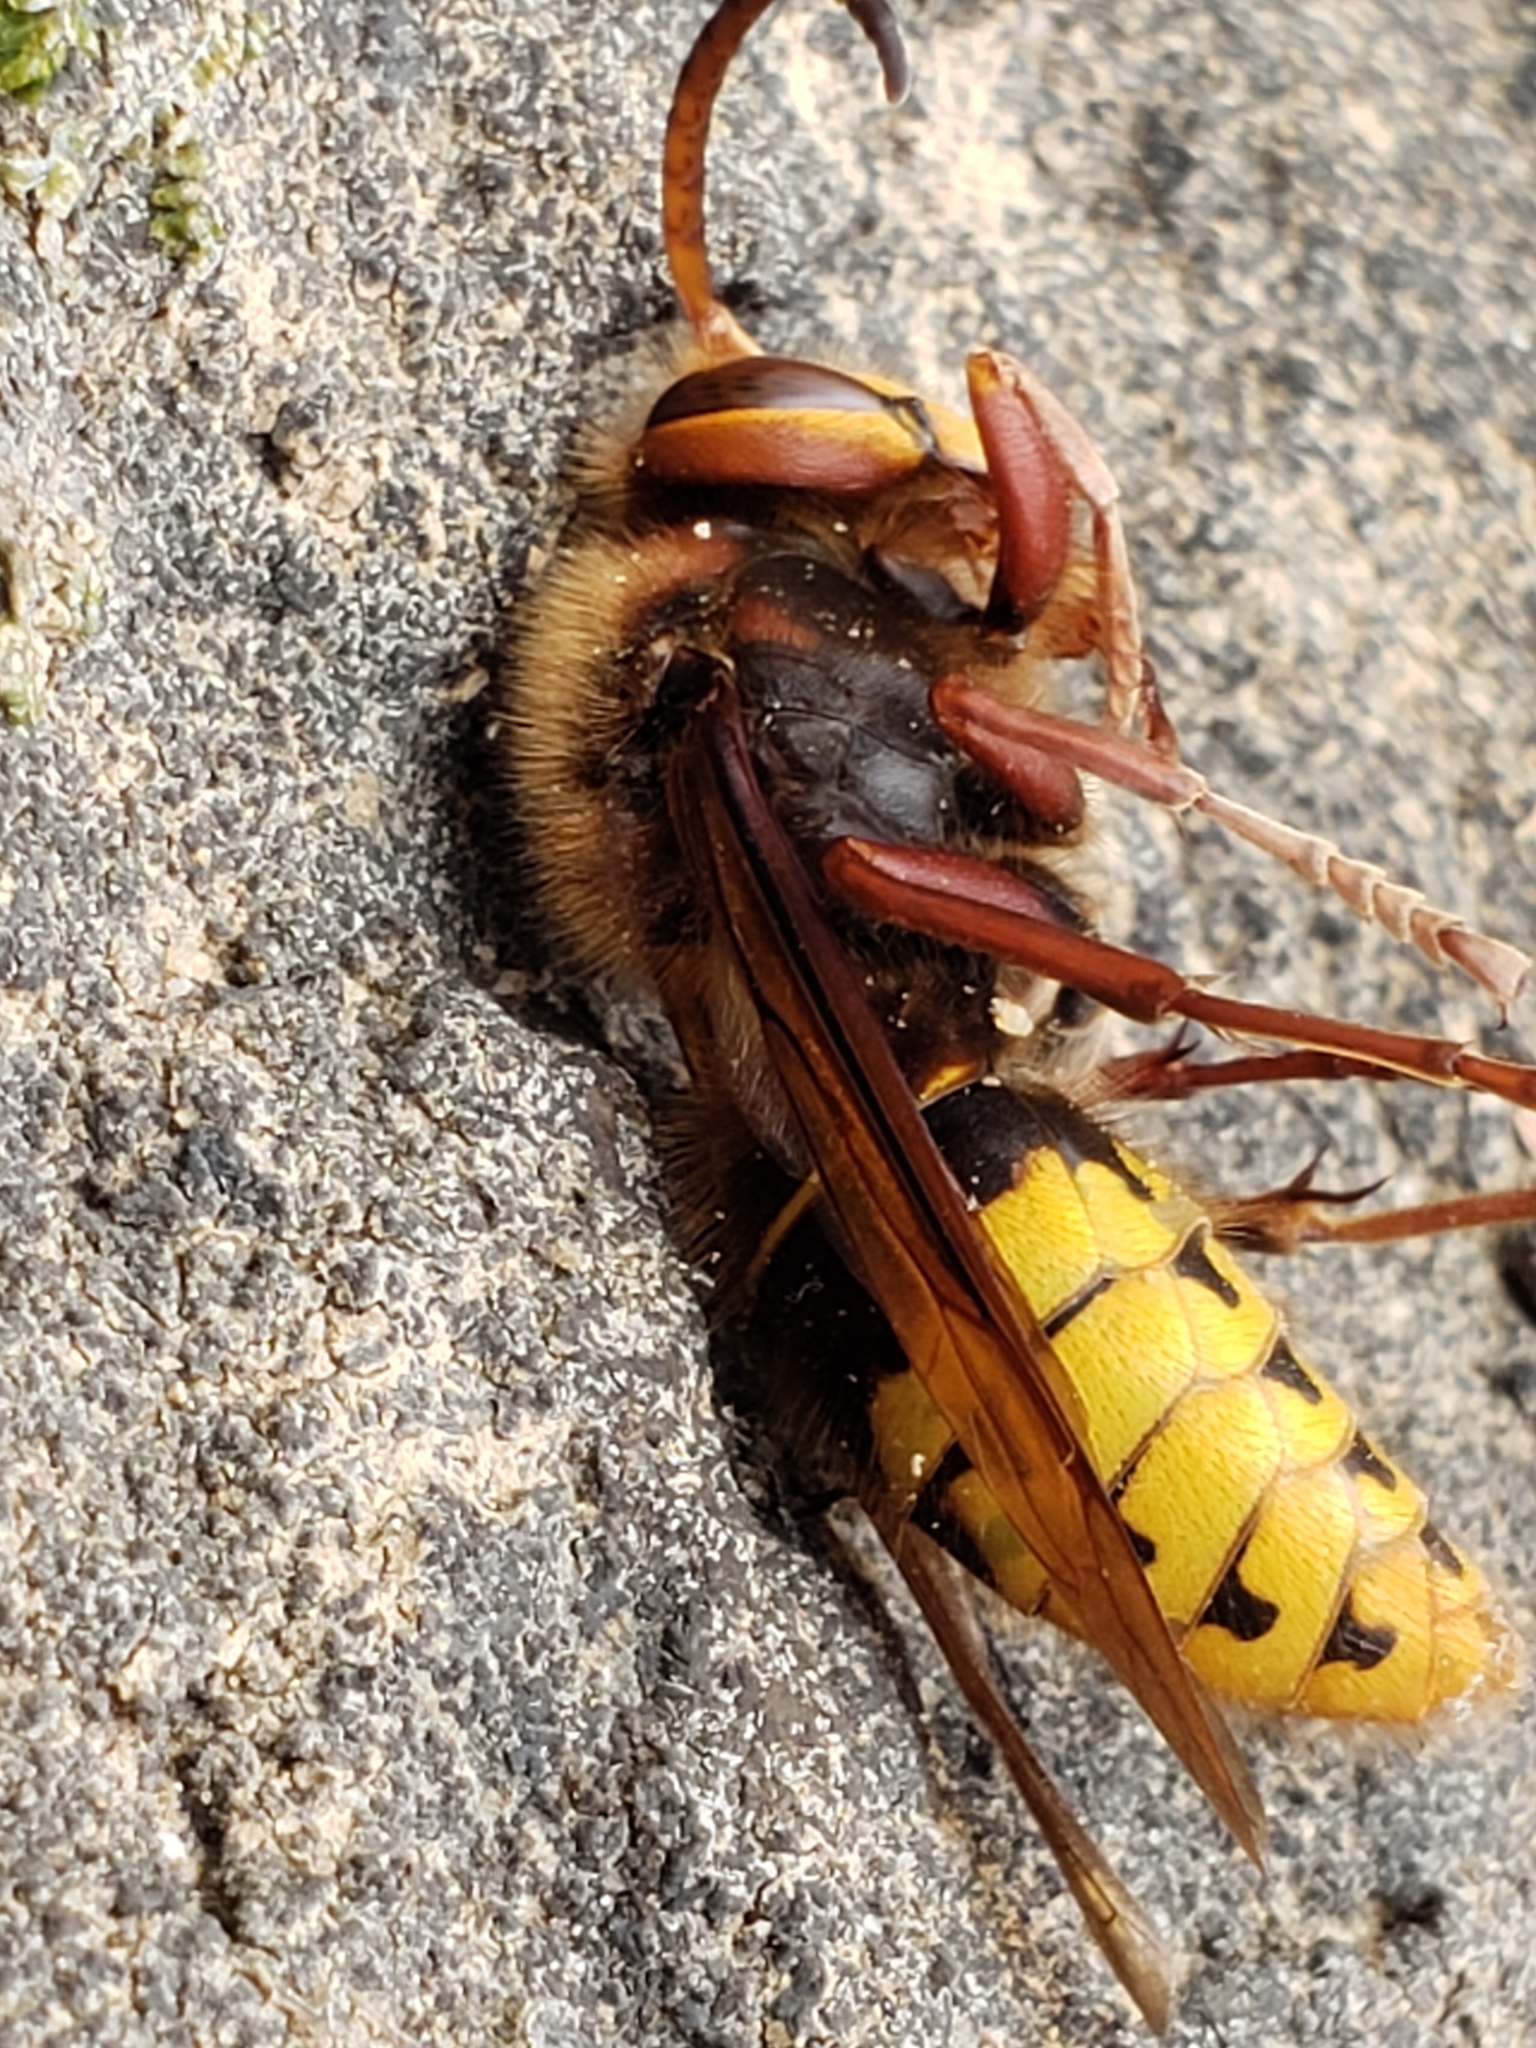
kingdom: Animalia
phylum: Arthropoda
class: Insecta
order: Hymenoptera
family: Vespidae
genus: Vespa
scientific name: Vespa crabro
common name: Hornet
